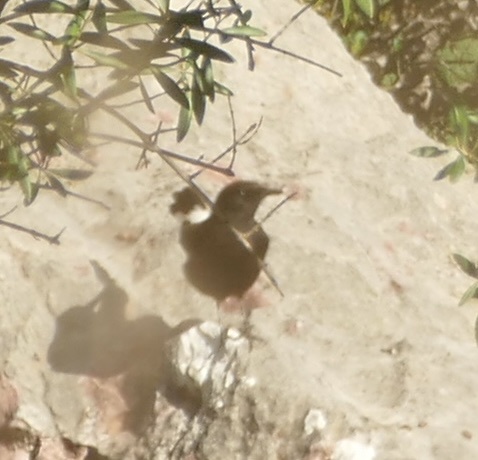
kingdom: Animalia
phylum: Chordata
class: Aves
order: Passeriformes
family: Muscicapidae
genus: Oenanthe
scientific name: Oenanthe leucura
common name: Black wheatear
